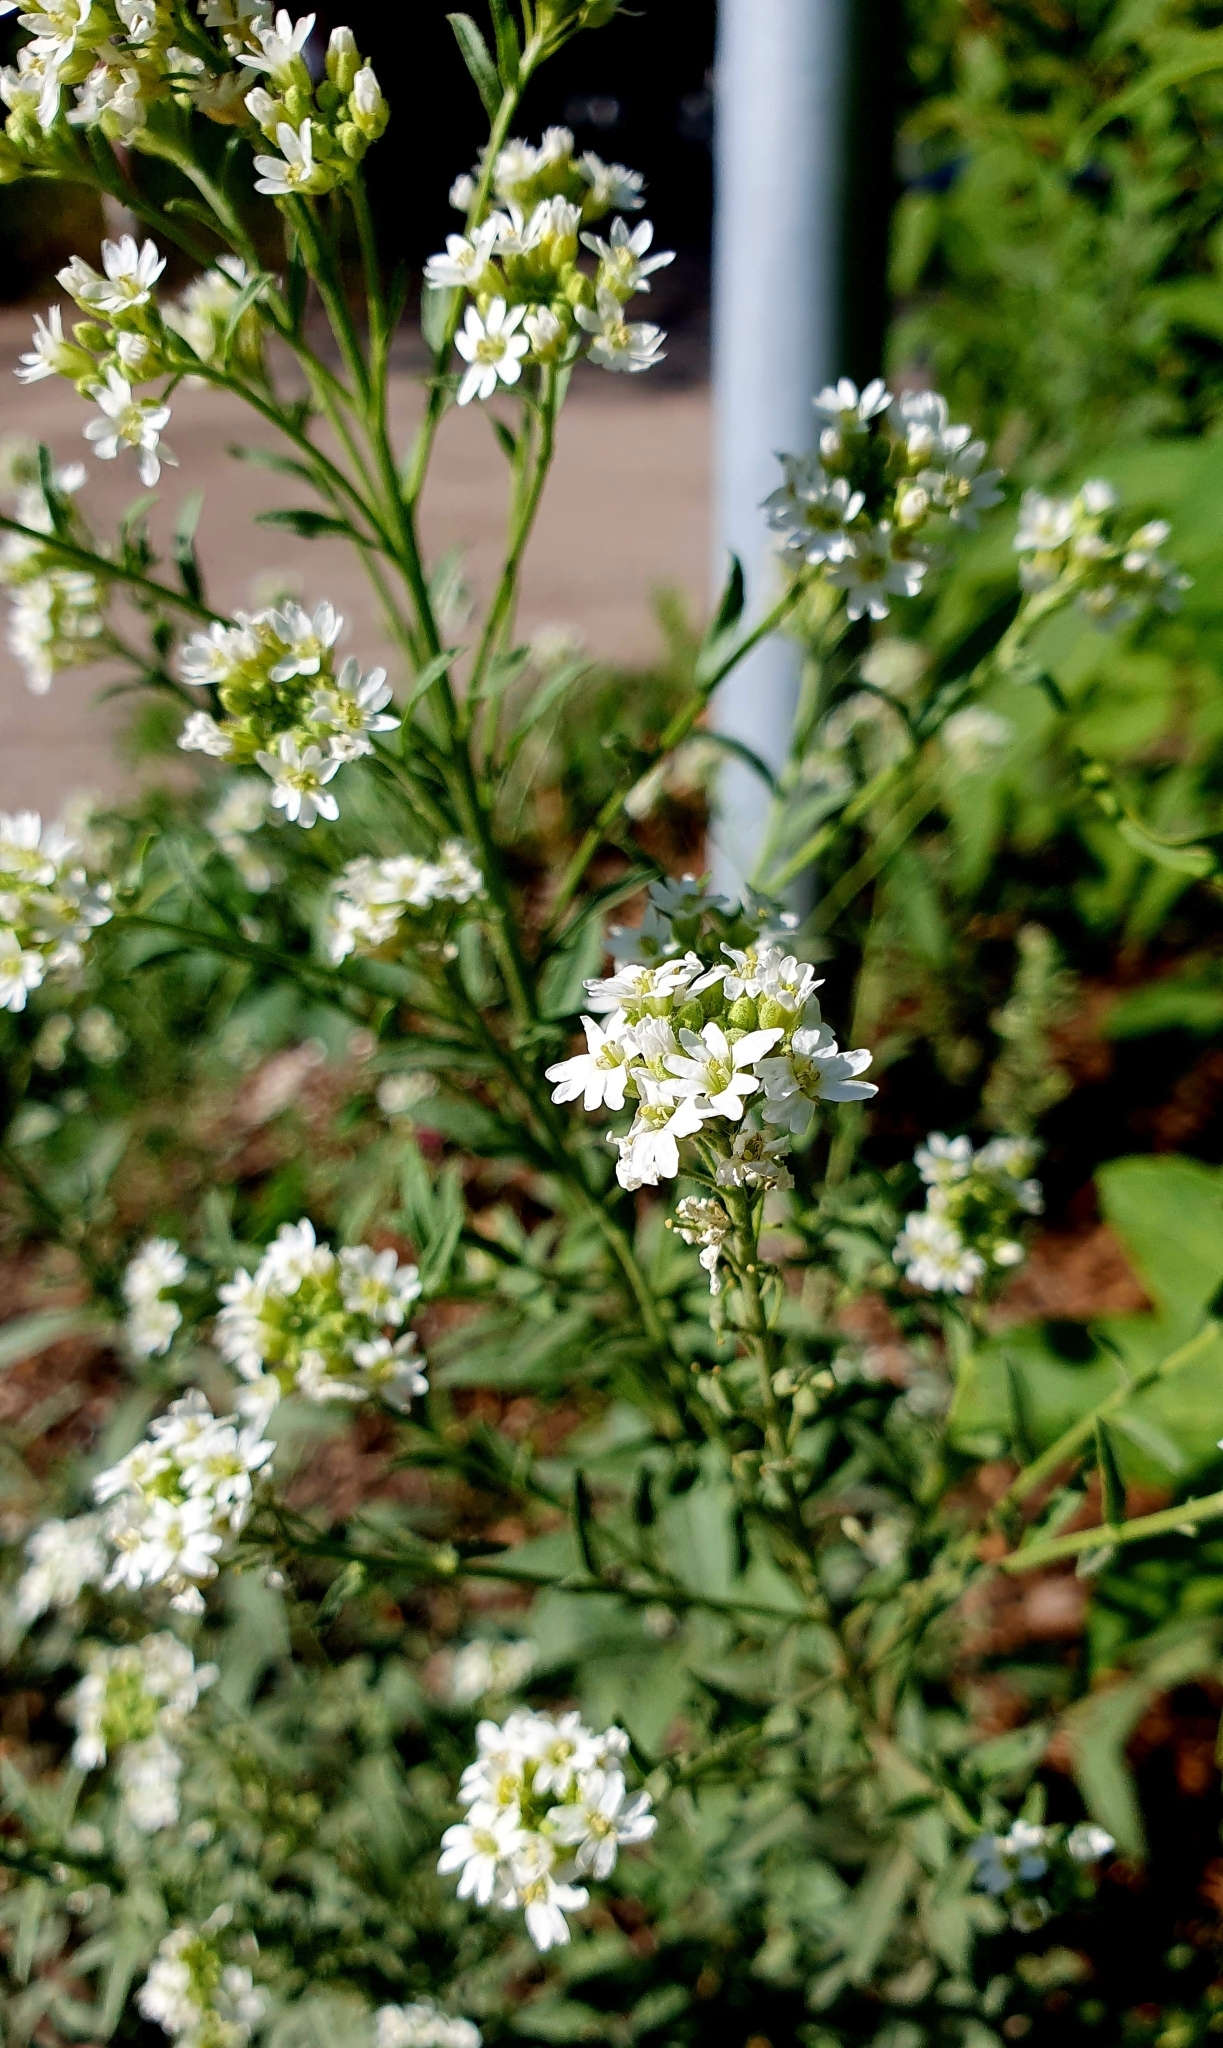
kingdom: Plantae
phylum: Tracheophyta
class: Magnoliopsida
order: Brassicales
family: Brassicaceae
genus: Berteroa
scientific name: Berteroa incana
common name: Hoary alison
